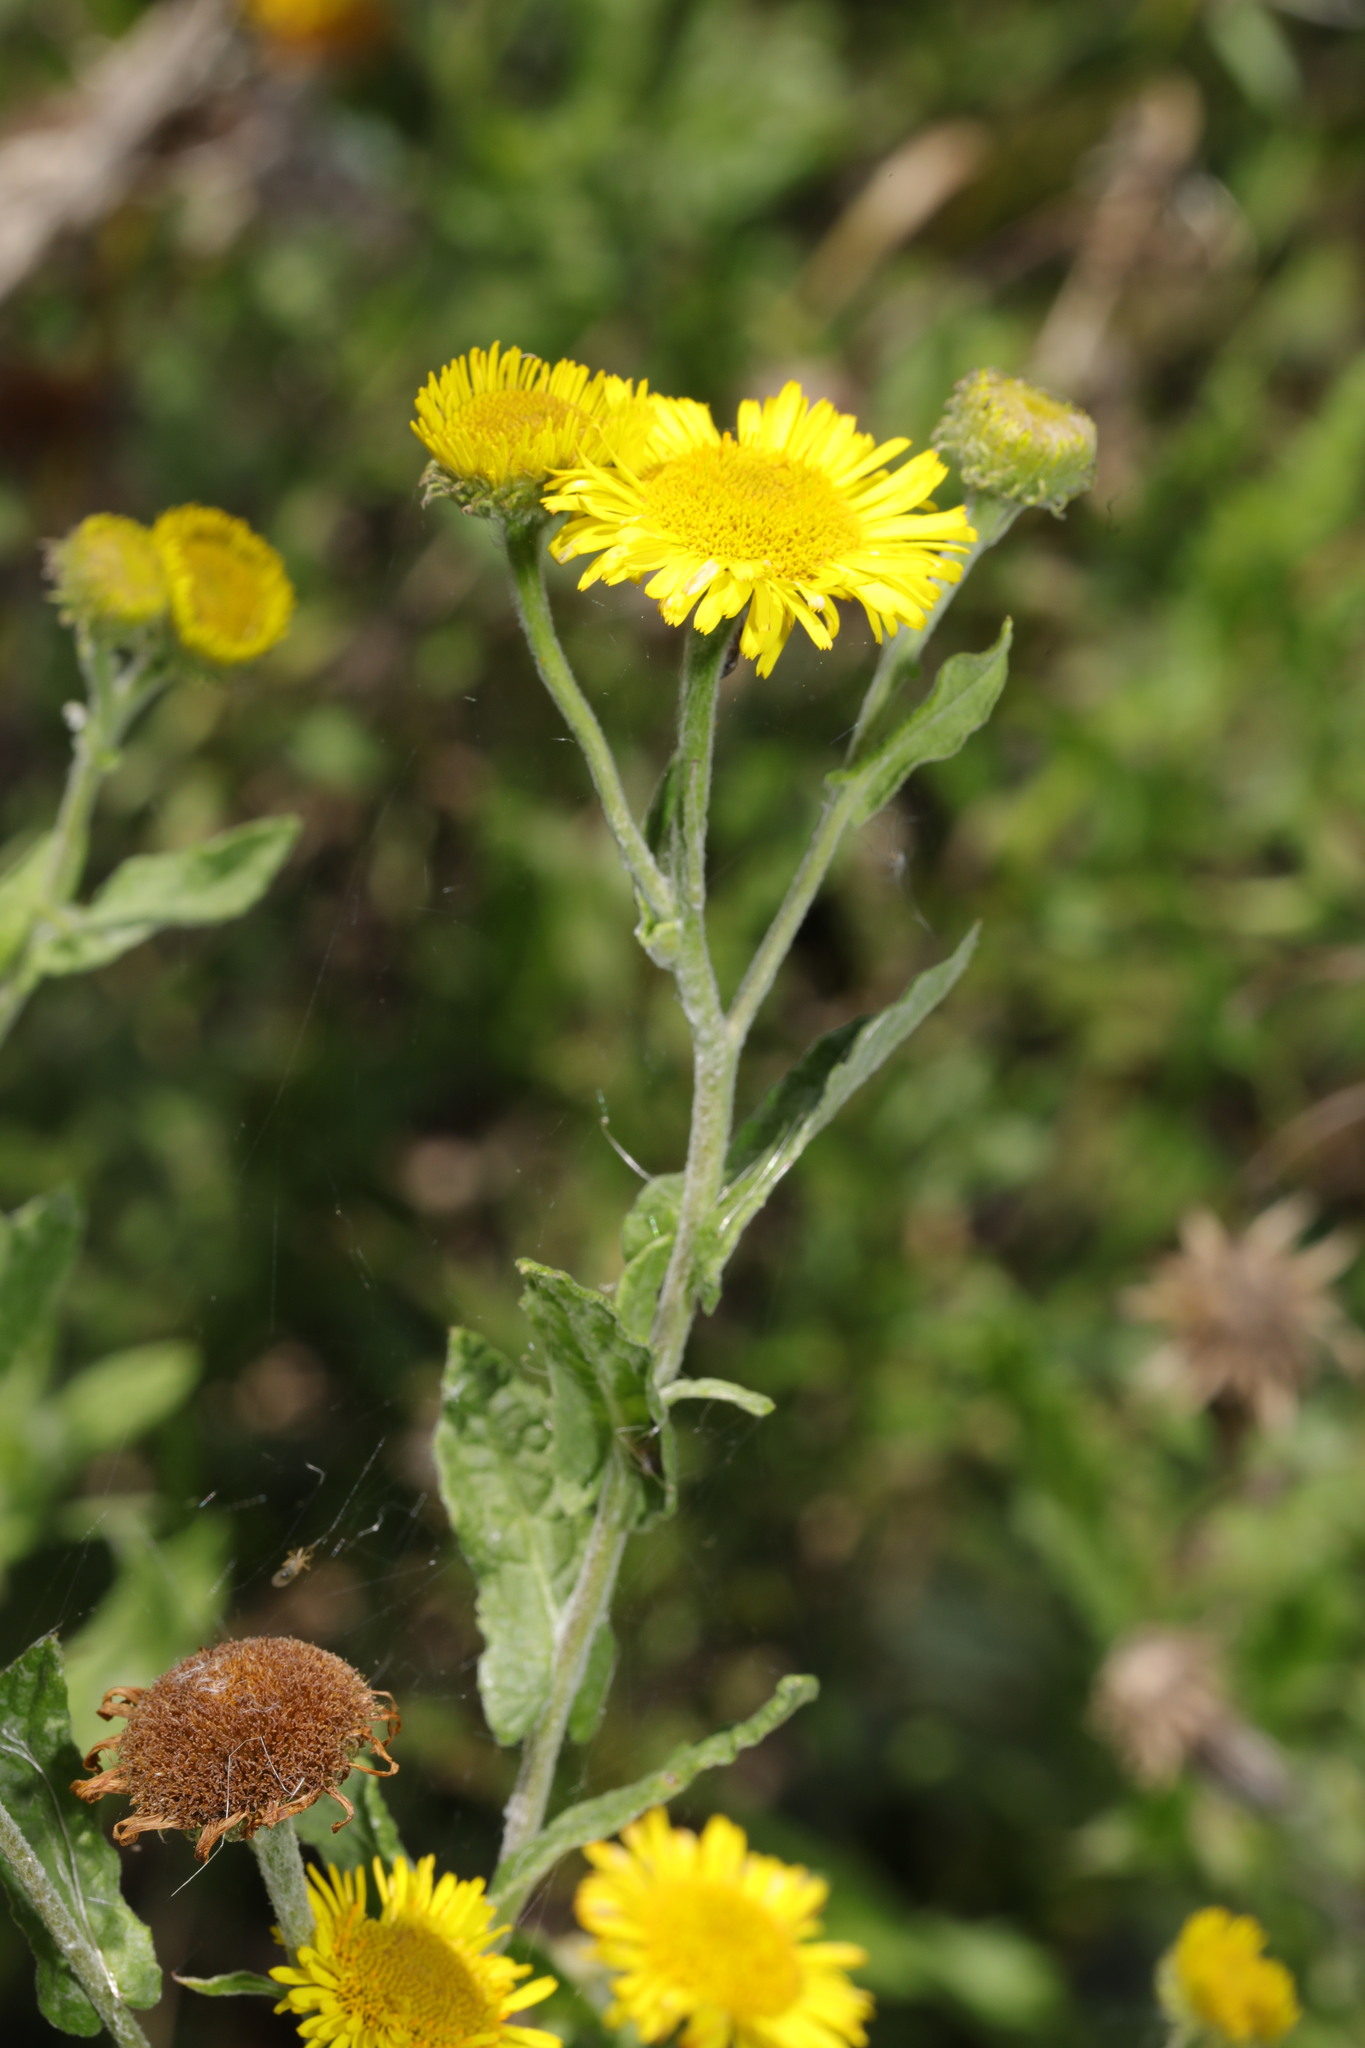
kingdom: Plantae
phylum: Tracheophyta
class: Magnoliopsida
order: Asterales
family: Asteraceae
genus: Pulicaria
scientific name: Pulicaria dysenterica
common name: Common fleabane
